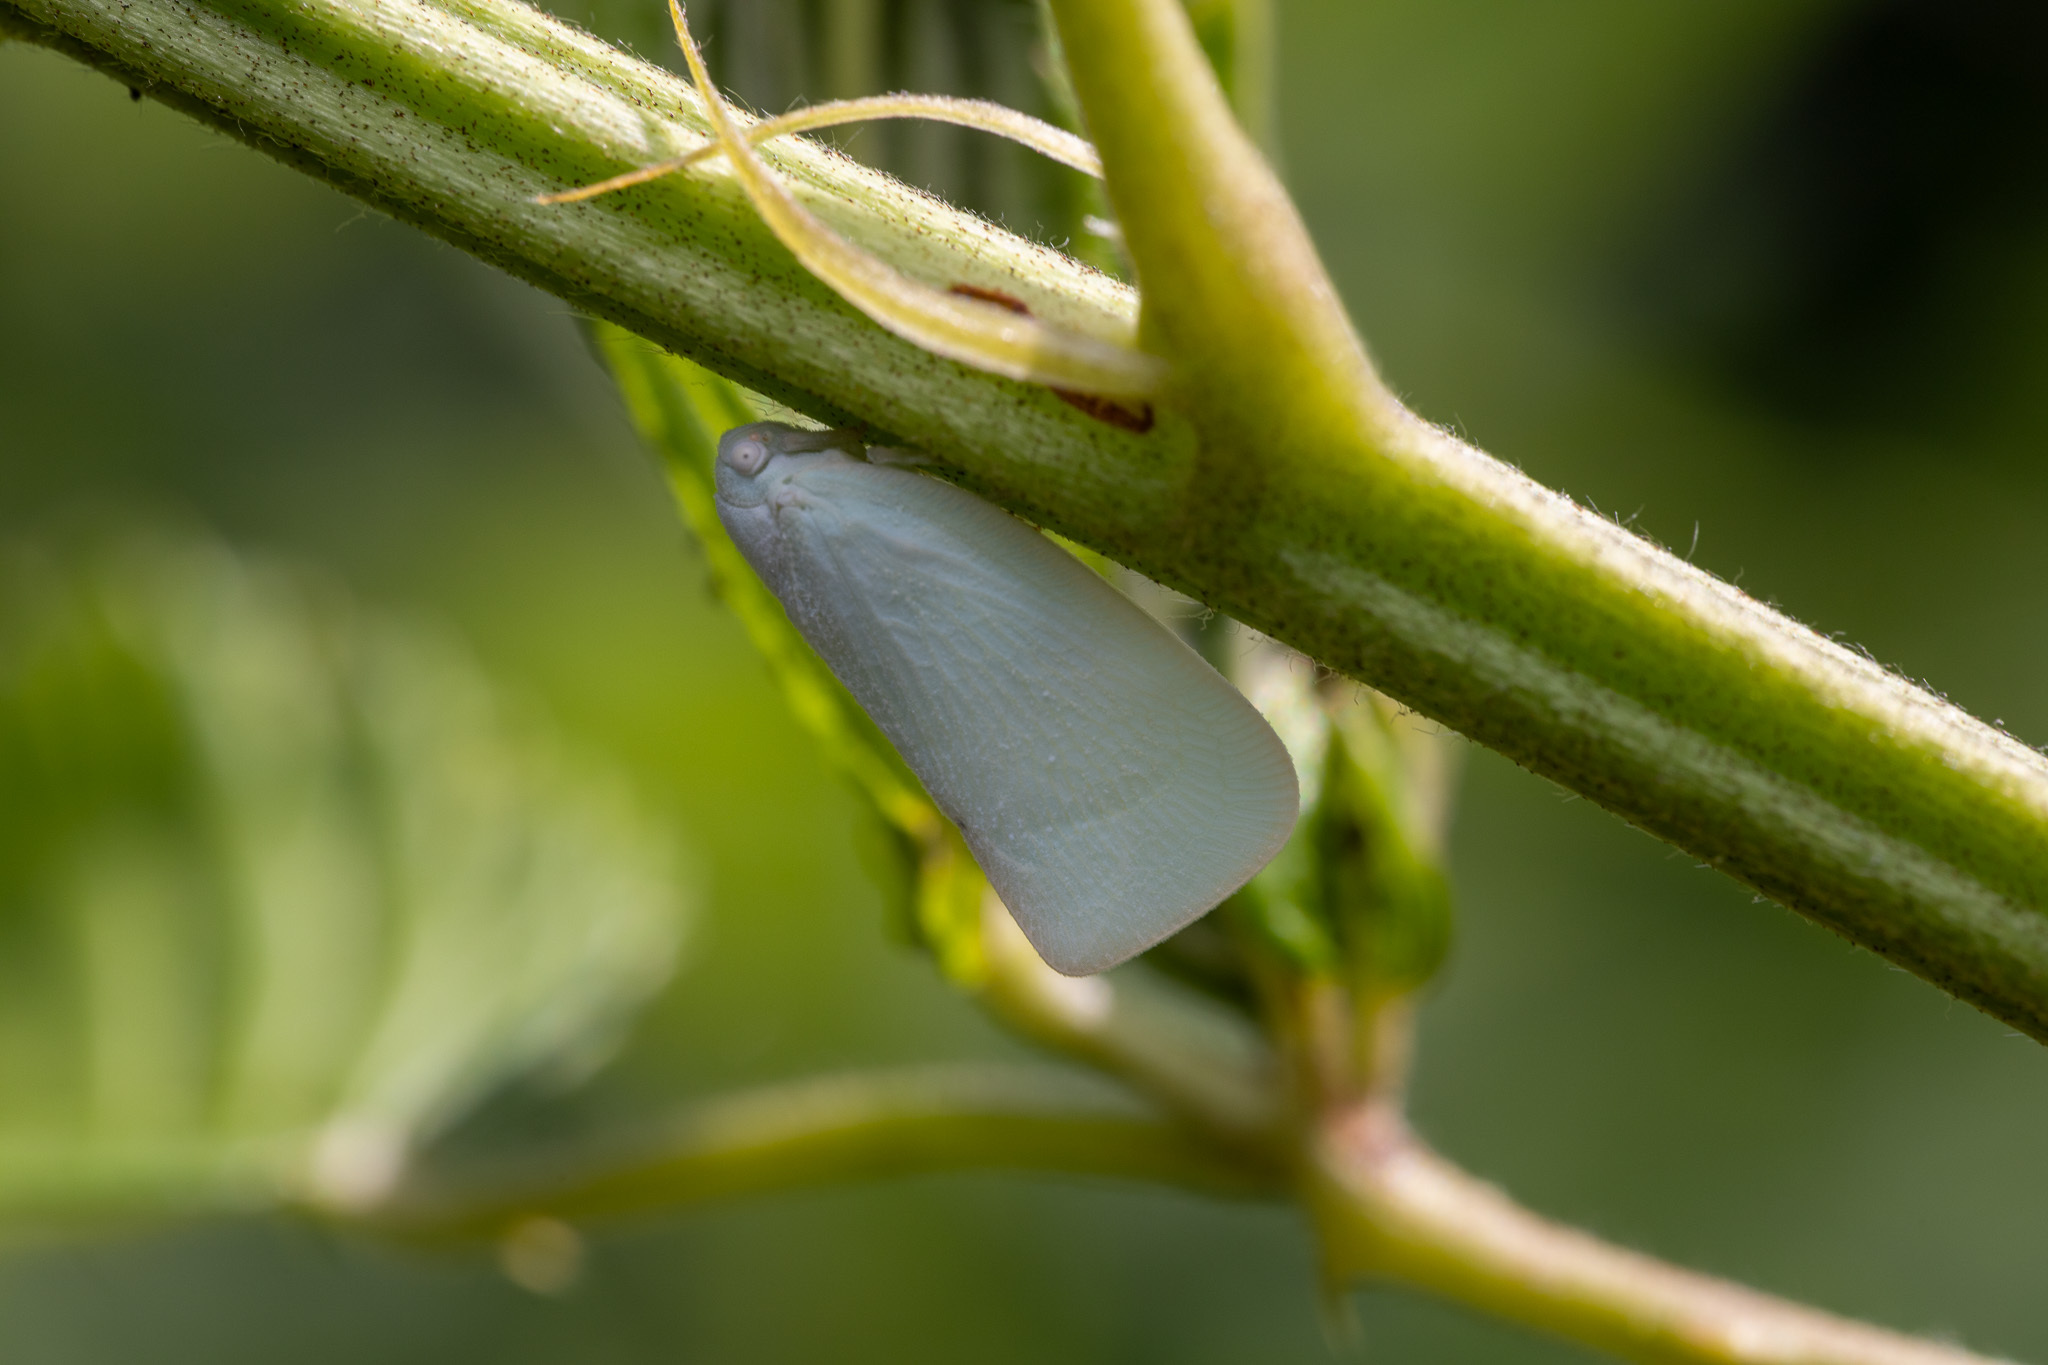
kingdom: Animalia
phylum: Arthropoda
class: Insecta
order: Hemiptera
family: Flatidae
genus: Flatormenis
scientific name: Flatormenis proxima
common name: Northern flatid planthopper
